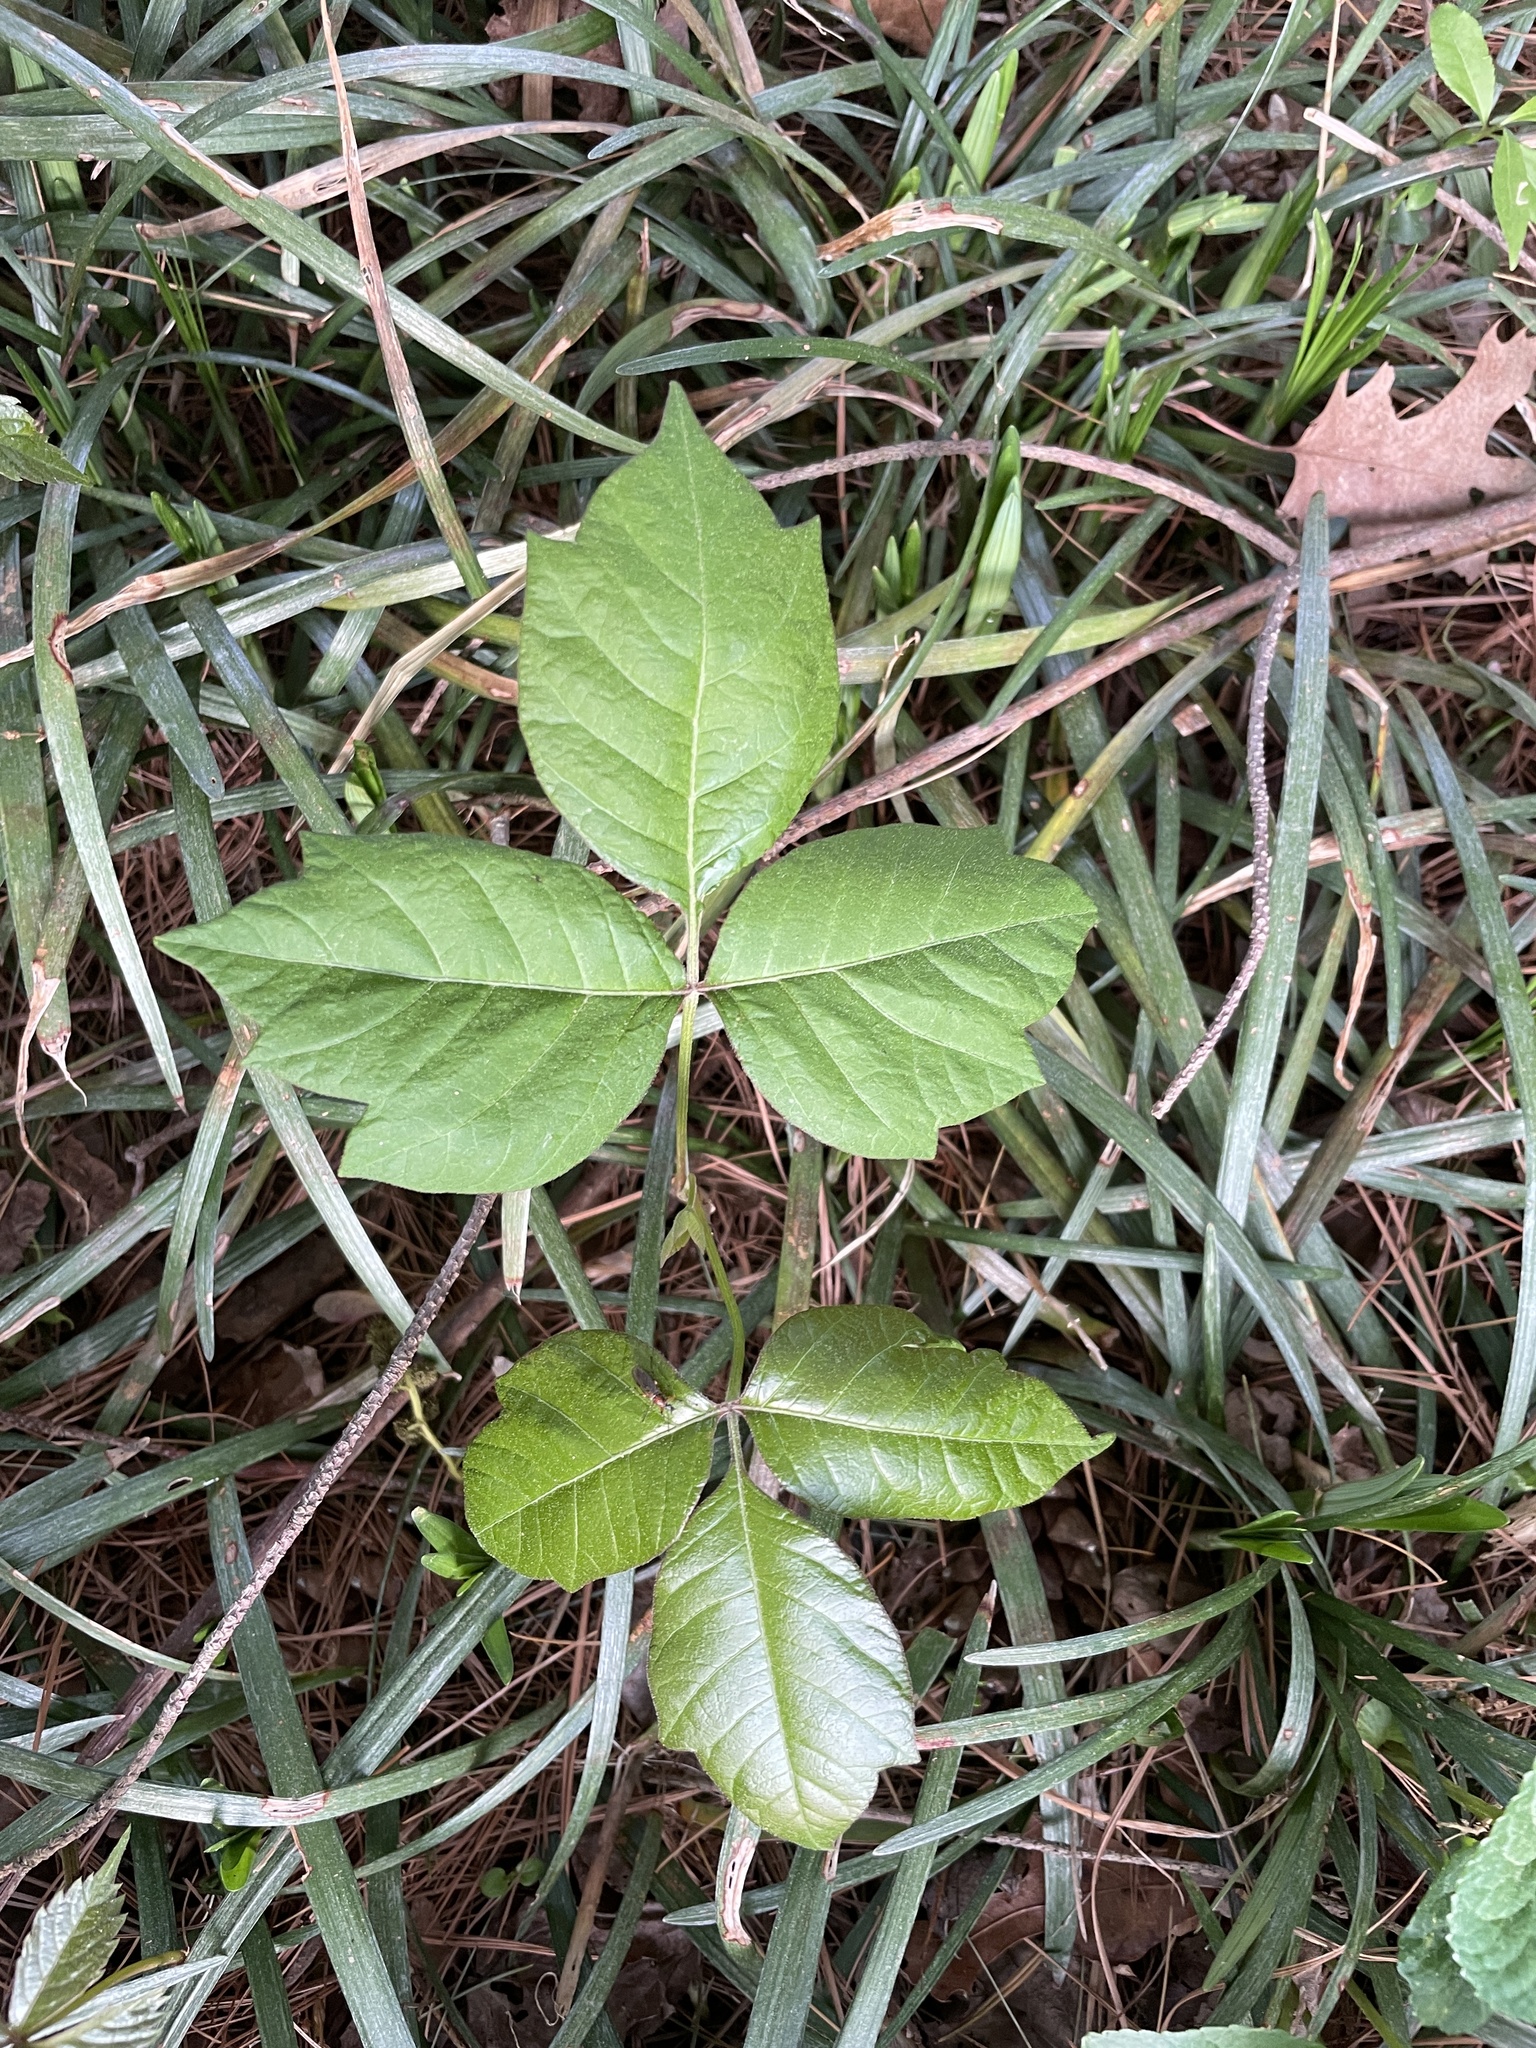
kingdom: Plantae
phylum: Tracheophyta
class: Magnoliopsida
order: Sapindales
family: Anacardiaceae
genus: Toxicodendron
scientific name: Toxicodendron radicans
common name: Poison ivy
